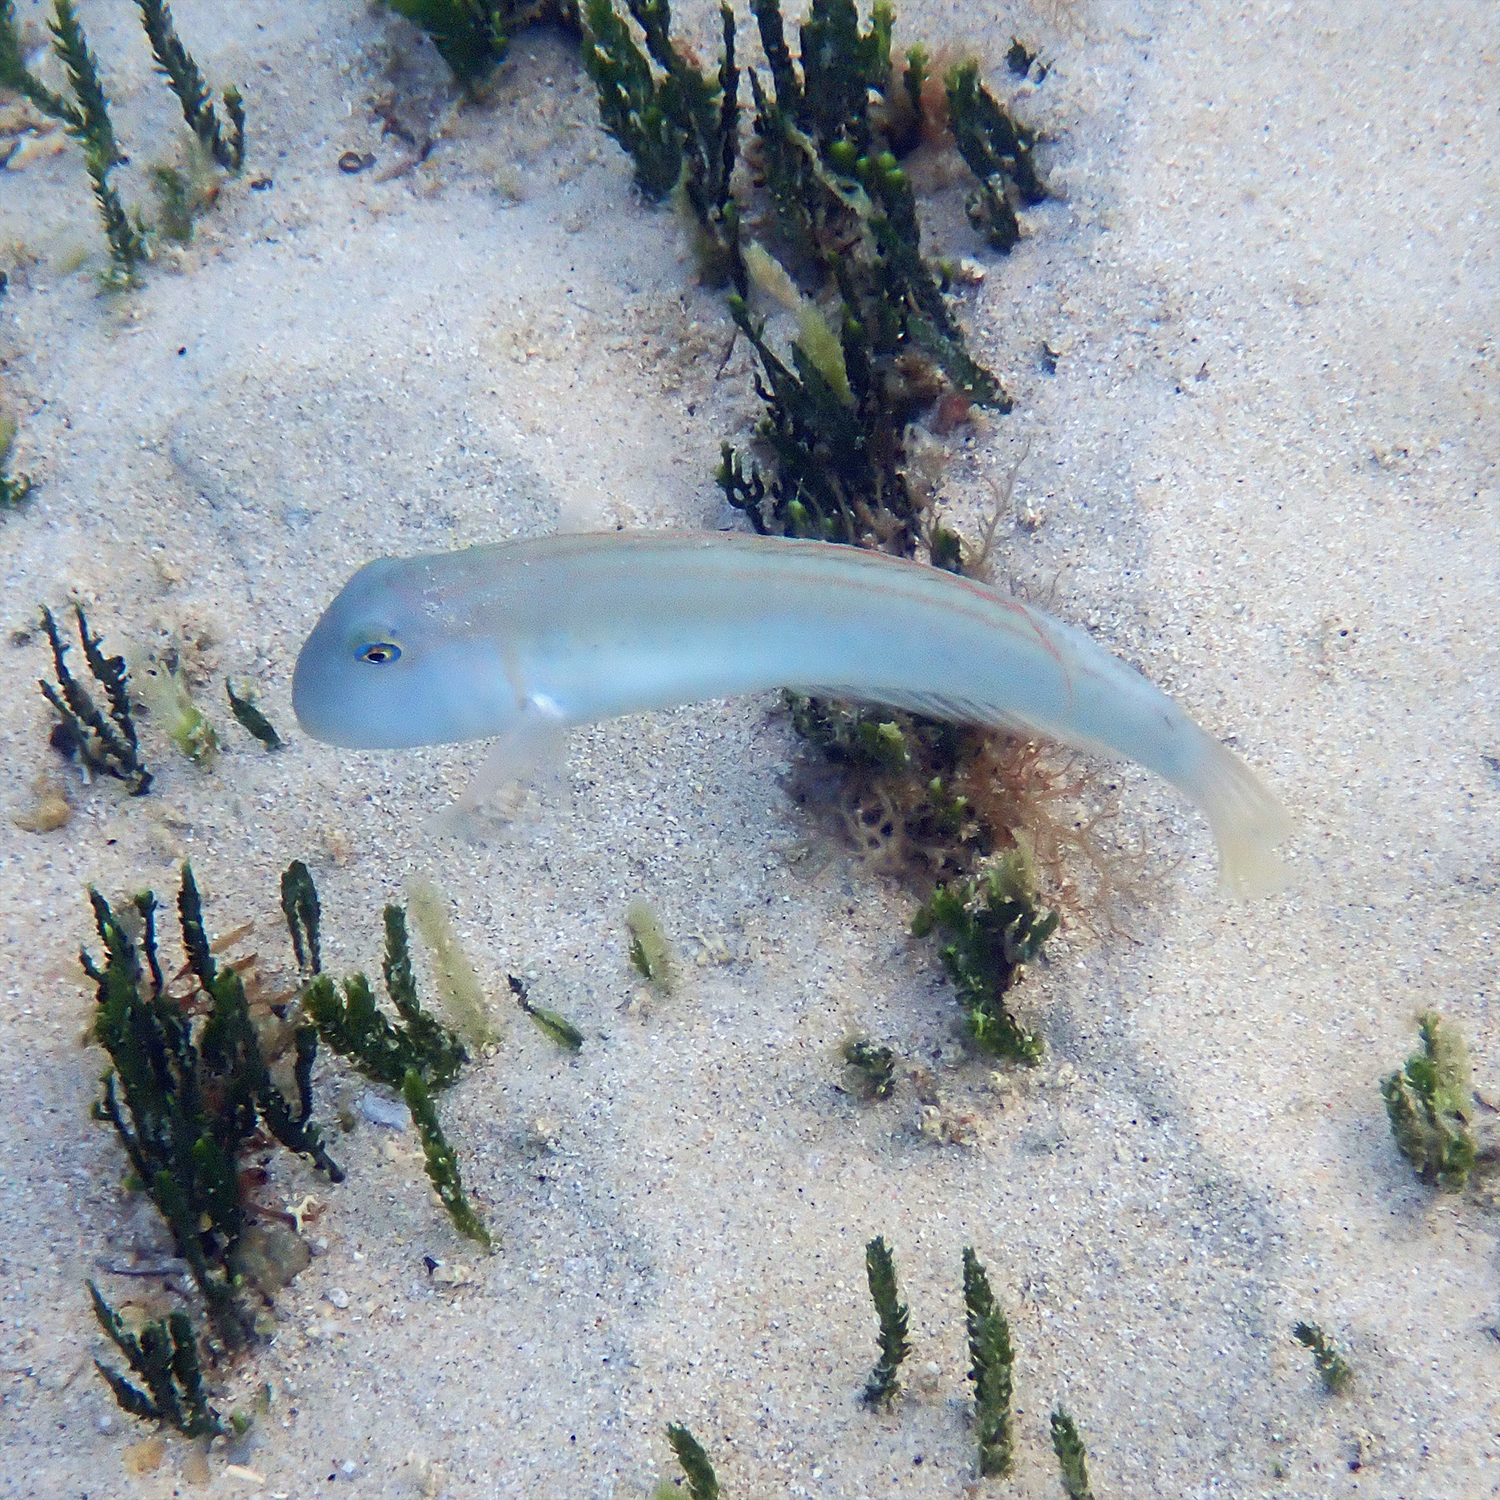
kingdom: Animalia
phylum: Chordata
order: Perciformes
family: Labridae
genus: Cymolutes
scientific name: Cymolutes praetextatus
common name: Knife razorfish
